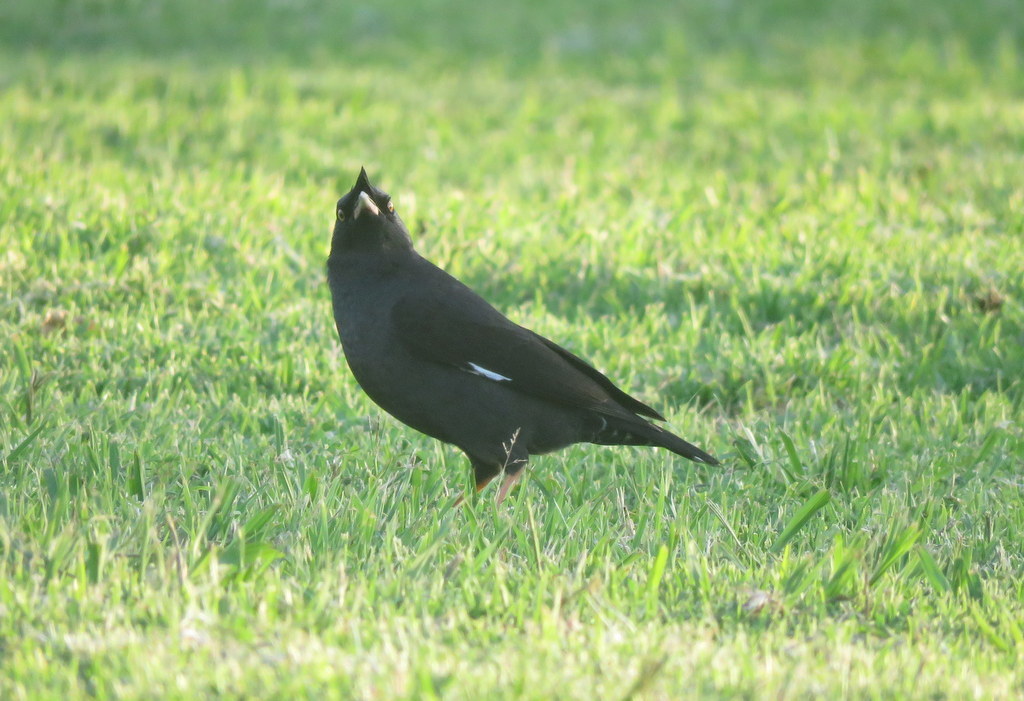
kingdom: Animalia
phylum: Chordata
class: Aves
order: Passeriformes
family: Sturnidae
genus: Acridotheres
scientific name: Acridotheres cristatellus
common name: Crested myna
